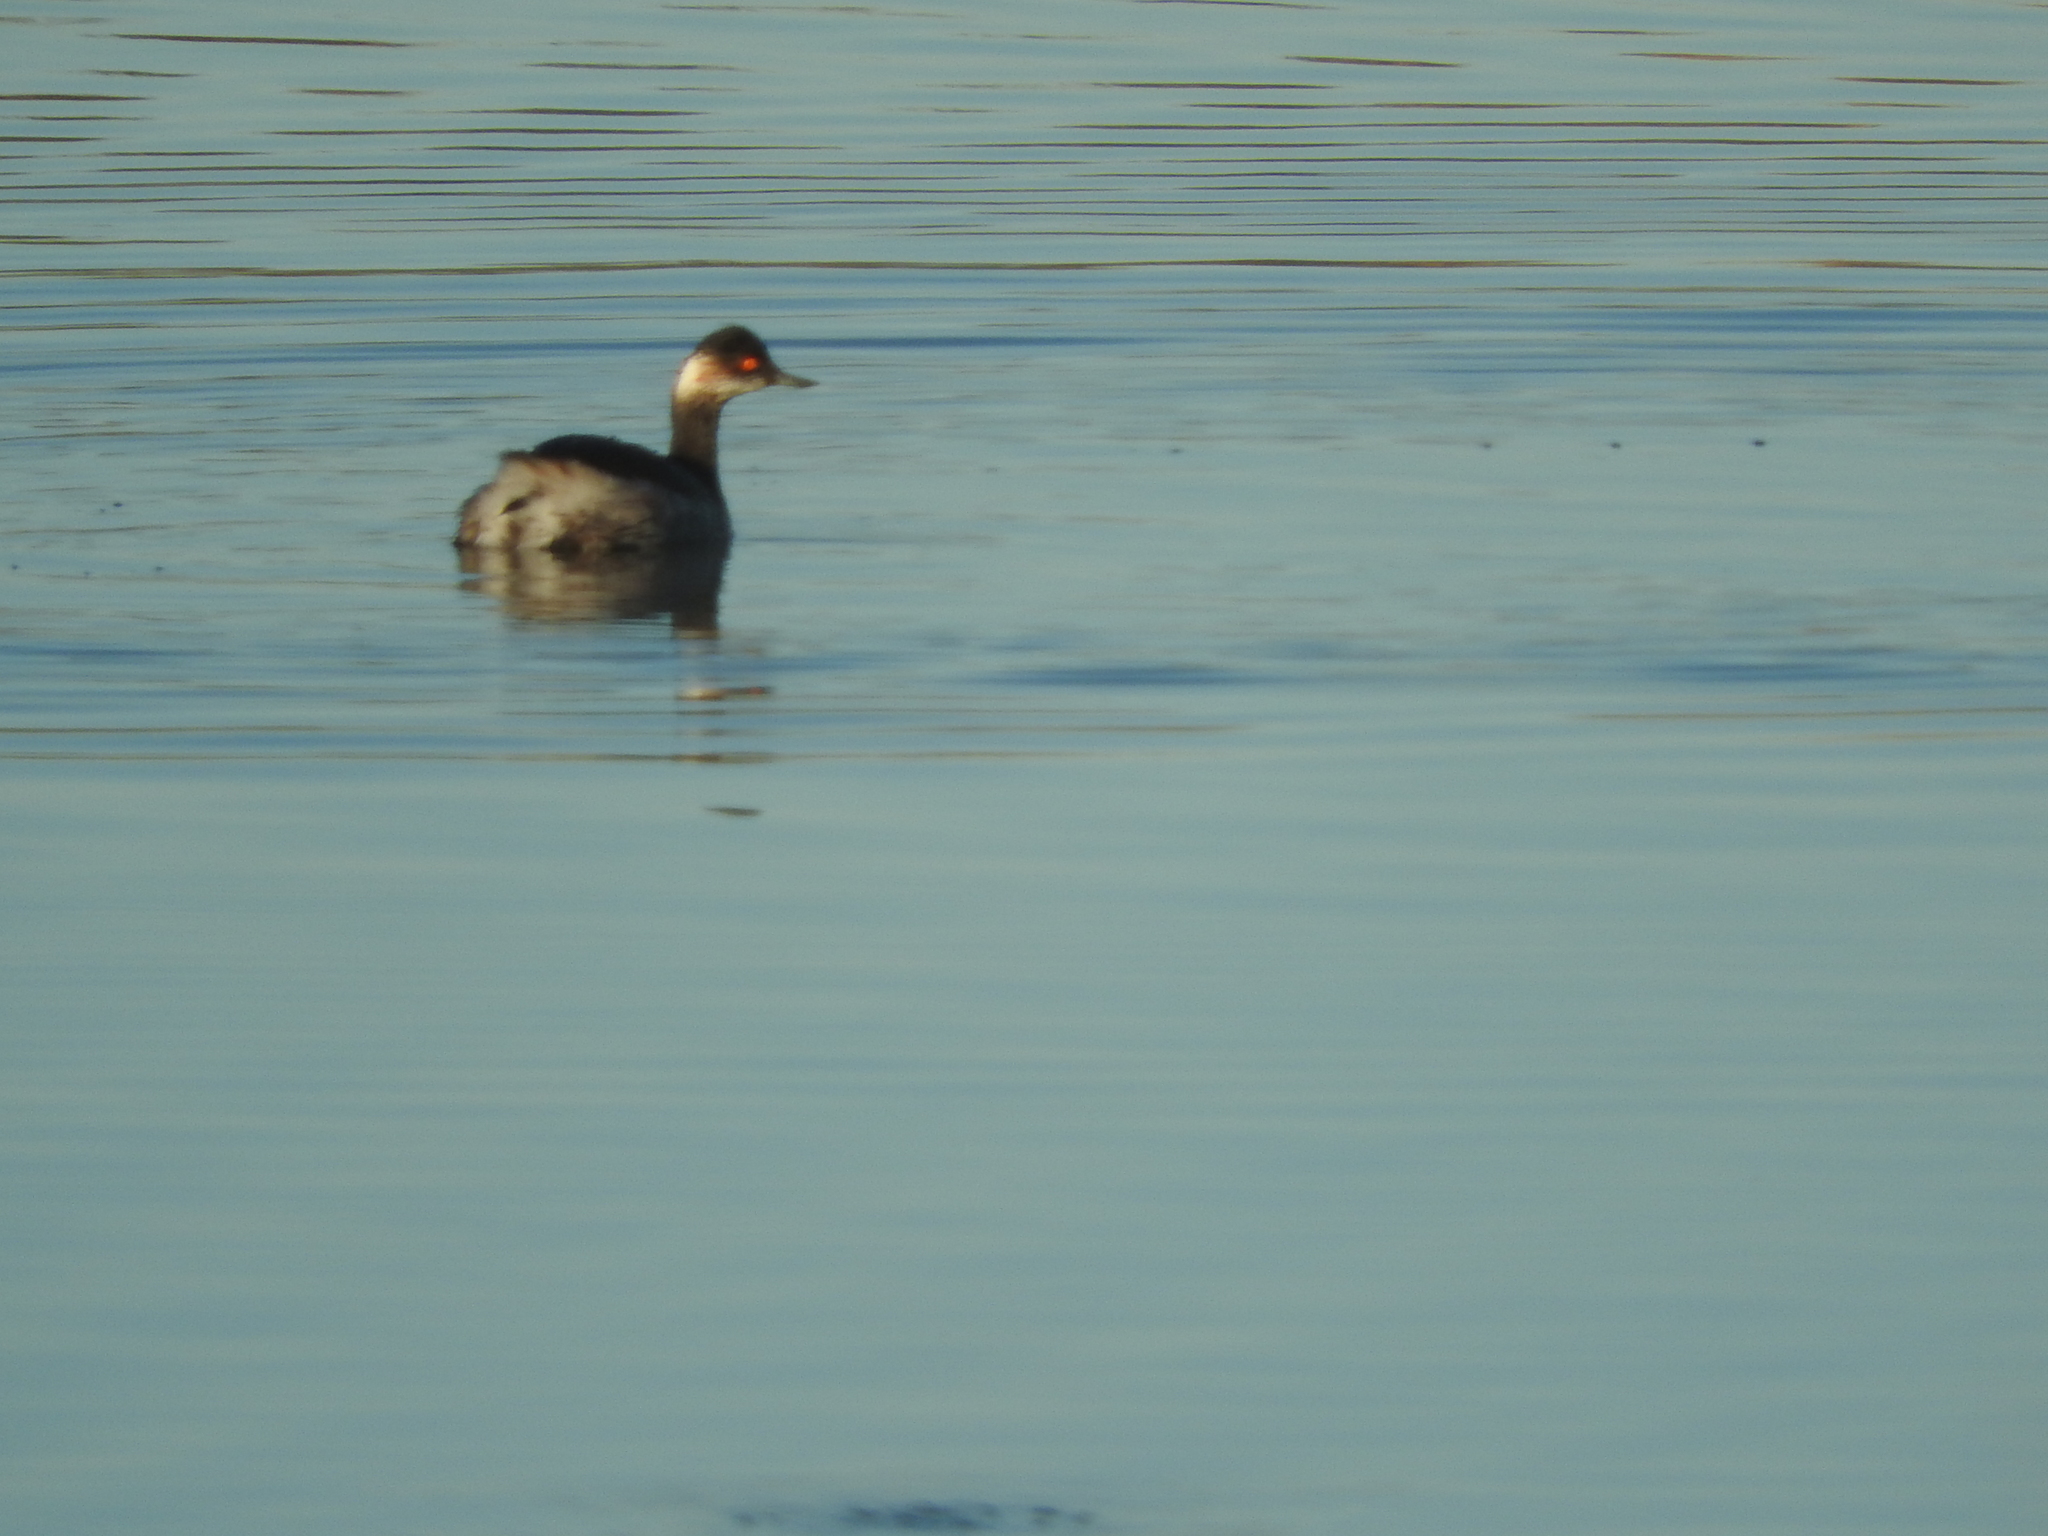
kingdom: Animalia
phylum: Chordata
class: Aves
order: Podicipediformes
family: Podicipedidae
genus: Podiceps
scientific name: Podiceps nigricollis
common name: Black-necked grebe
